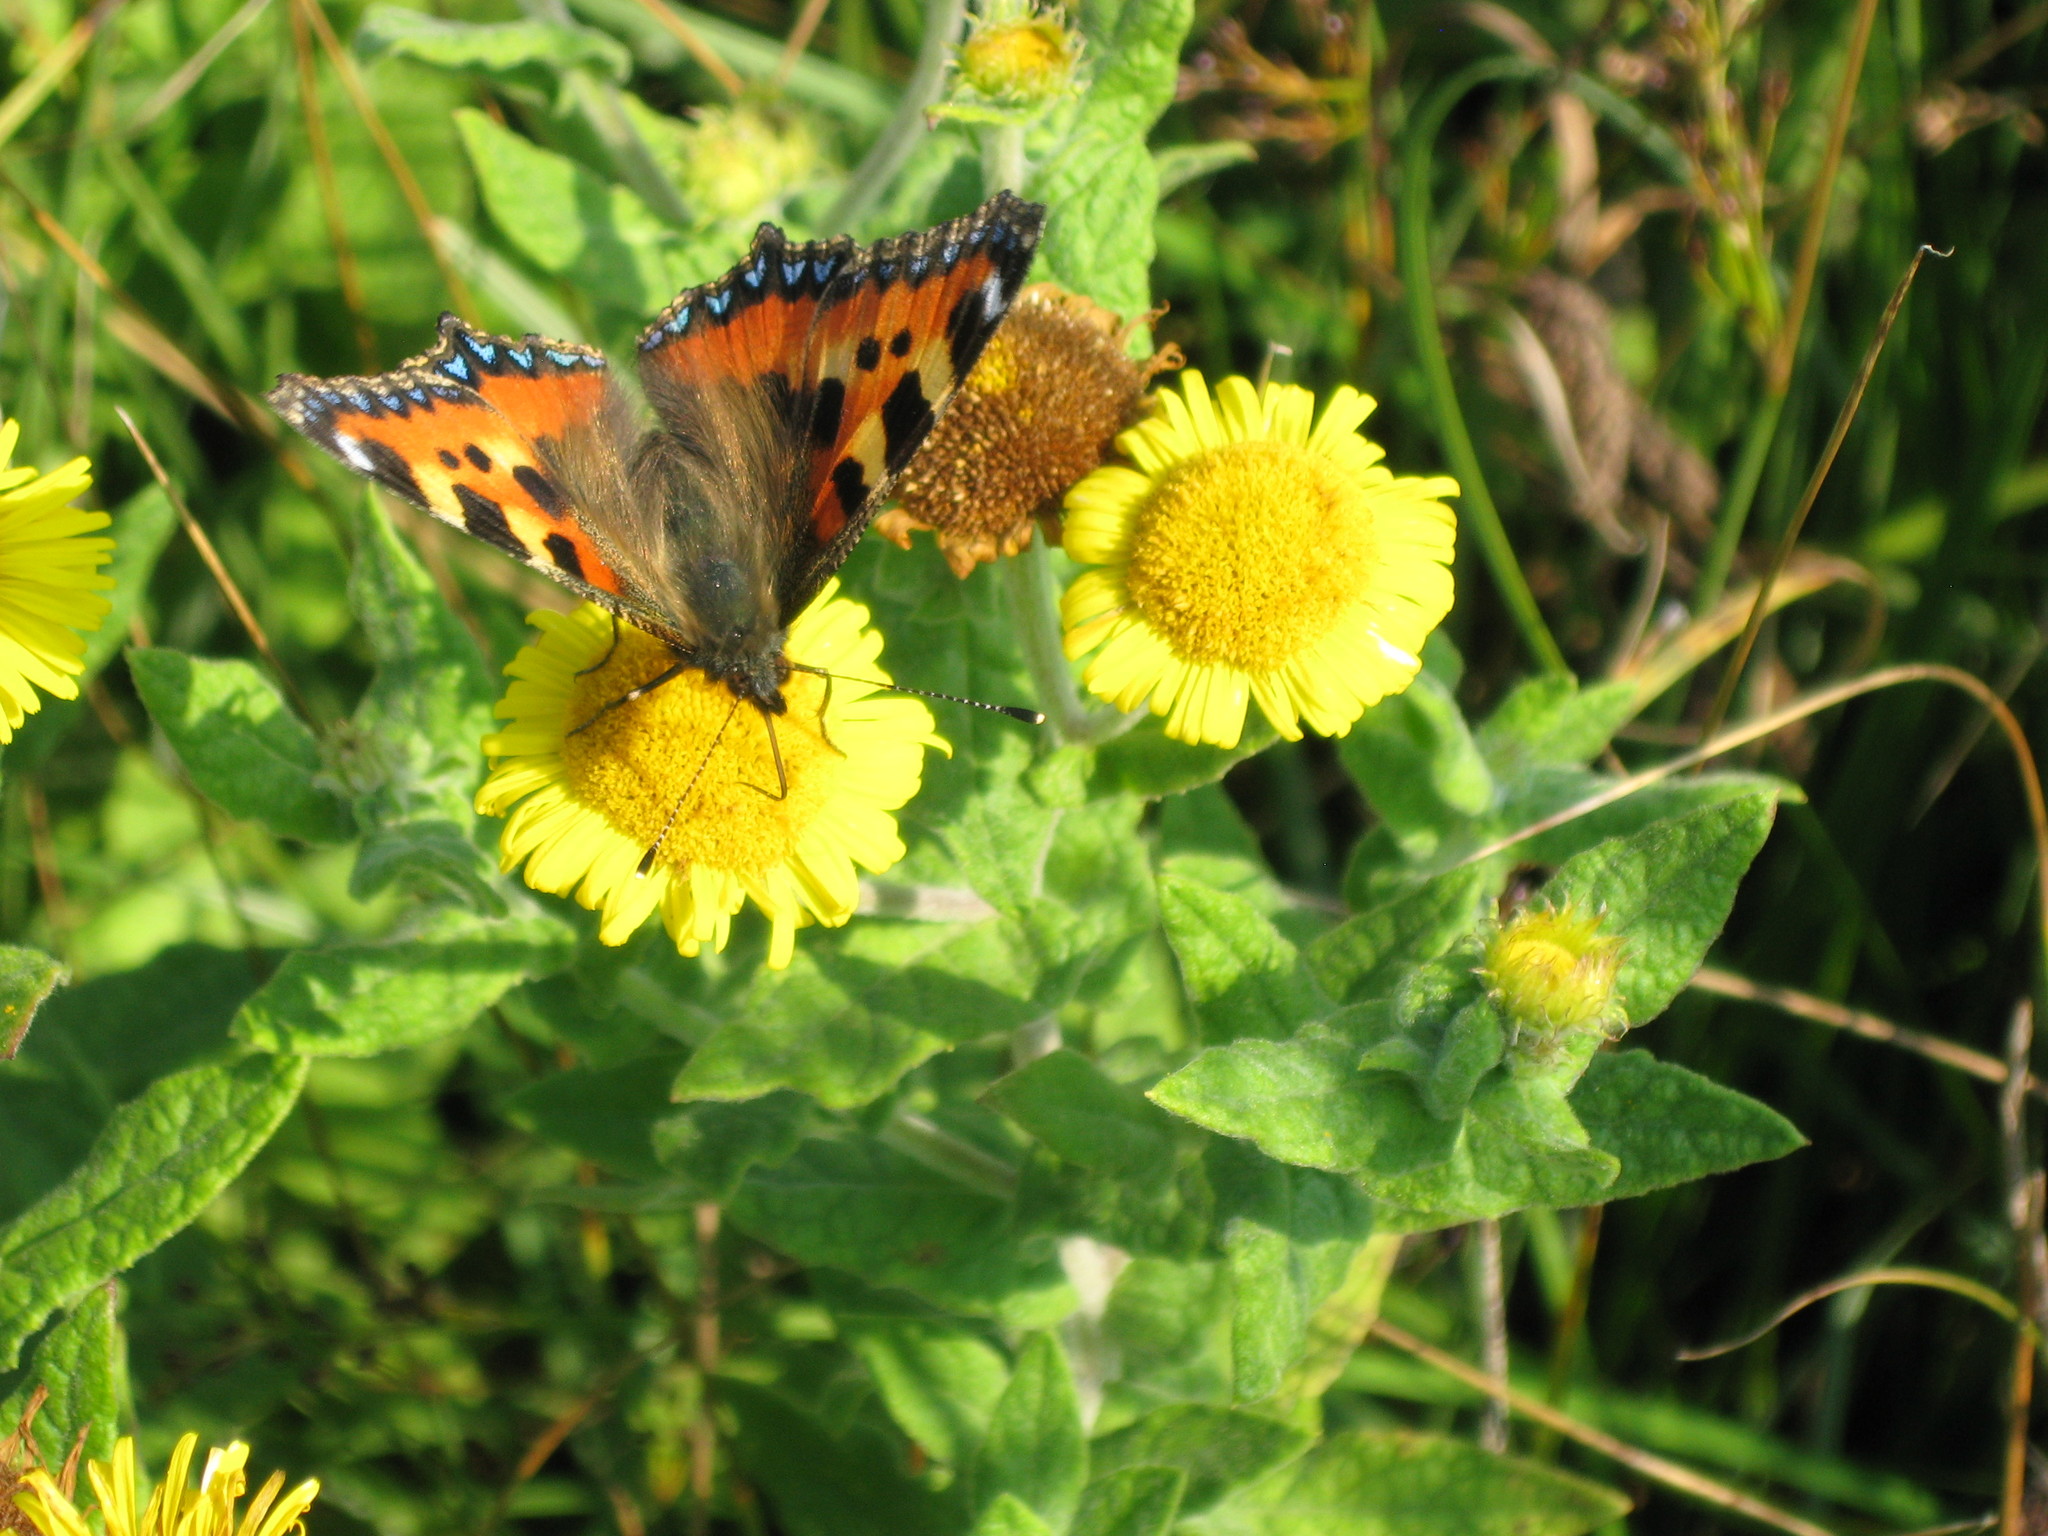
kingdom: Animalia
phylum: Arthropoda
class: Insecta
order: Lepidoptera
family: Nymphalidae
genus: Aglais
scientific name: Aglais urticae
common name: Small tortoiseshell
